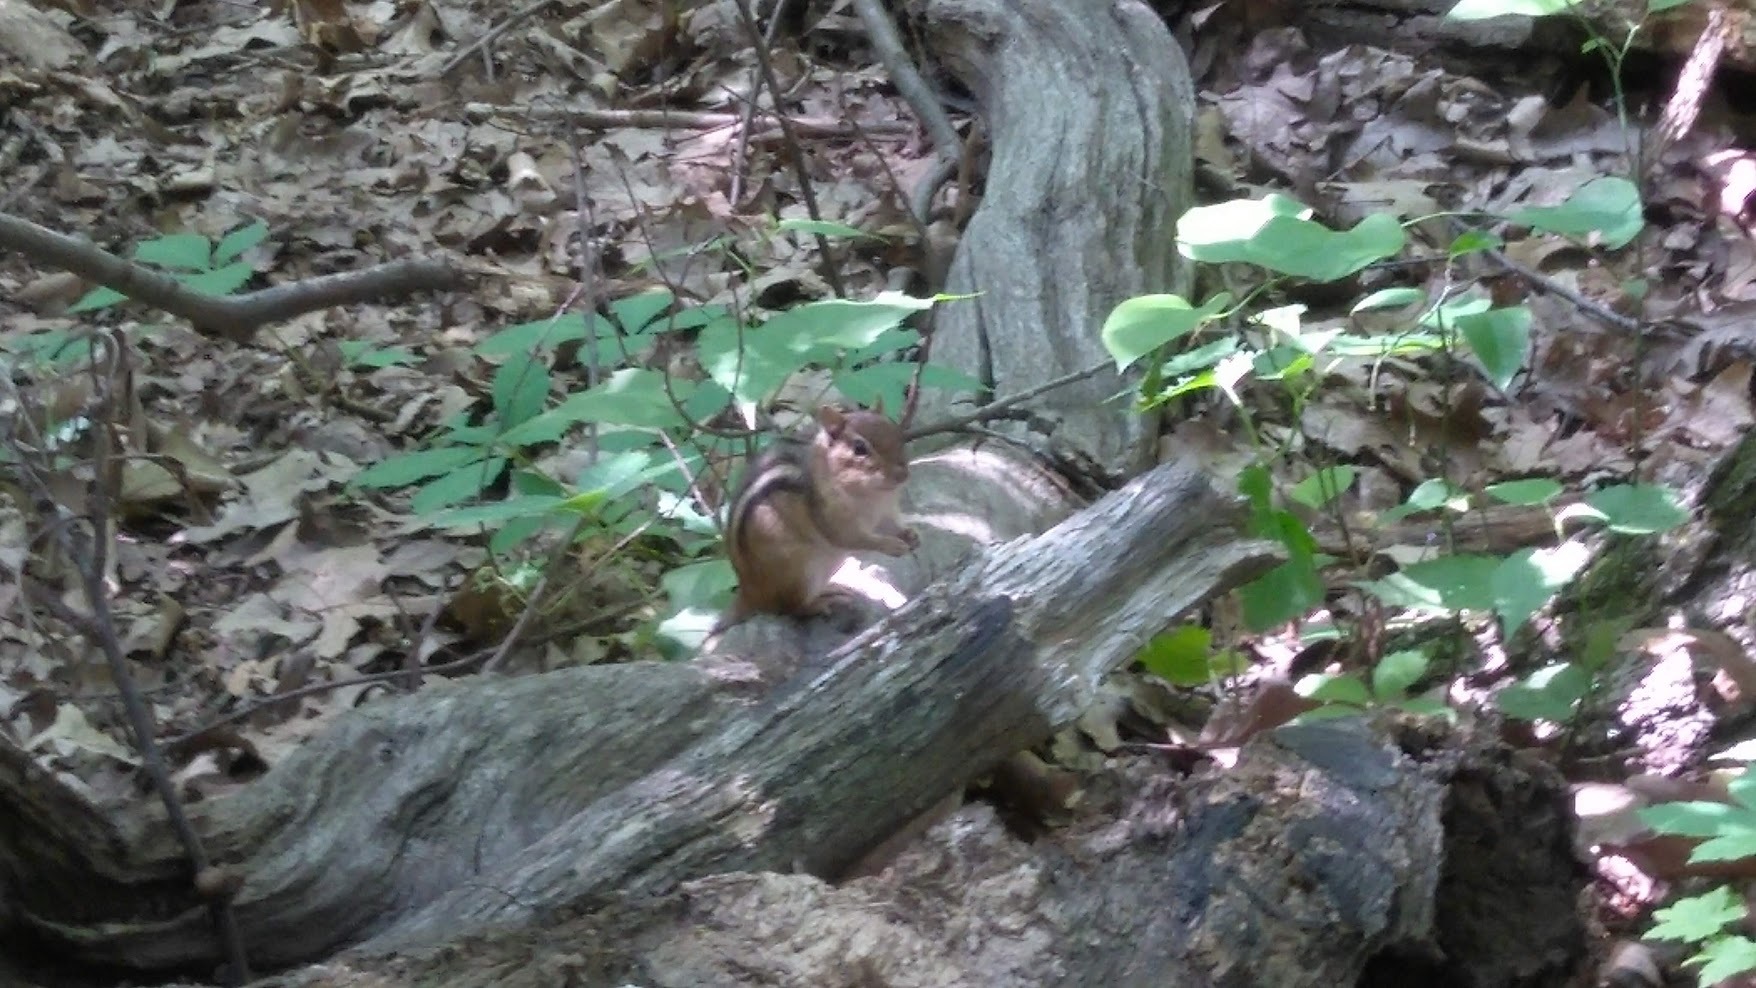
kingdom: Animalia
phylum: Chordata
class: Mammalia
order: Rodentia
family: Sciuridae
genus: Tamias
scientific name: Tamias striatus
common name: Eastern chipmunk
